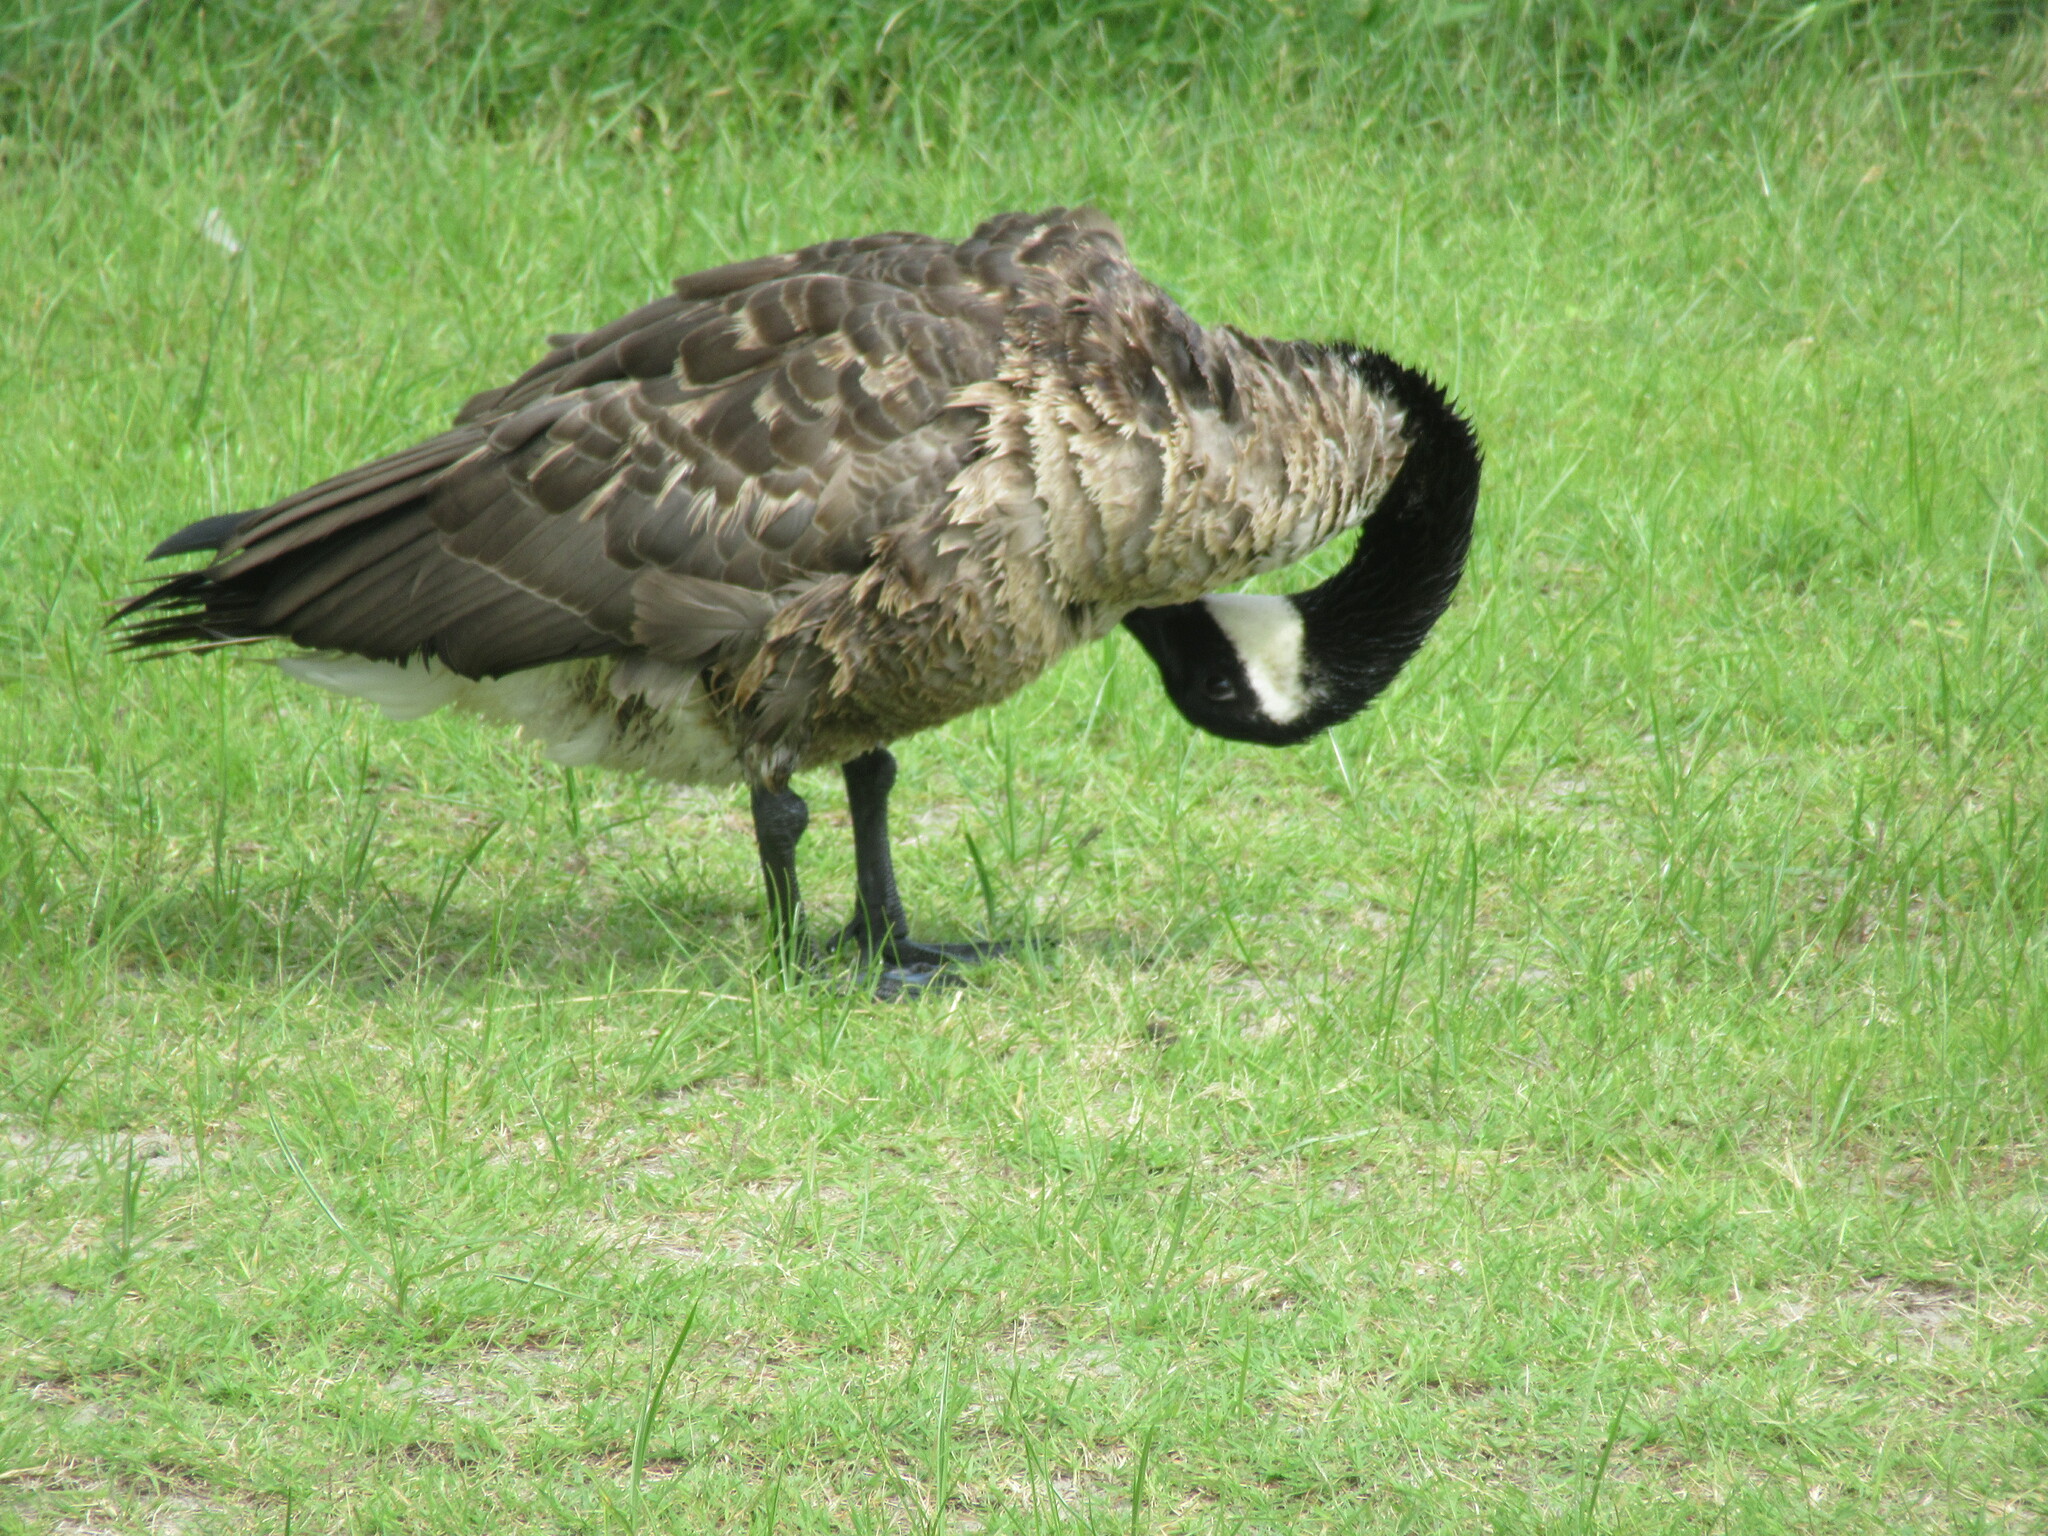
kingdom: Animalia
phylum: Chordata
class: Aves
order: Anseriformes
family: Anatidae
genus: Branta
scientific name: Branta canadensis
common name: Canada goose
